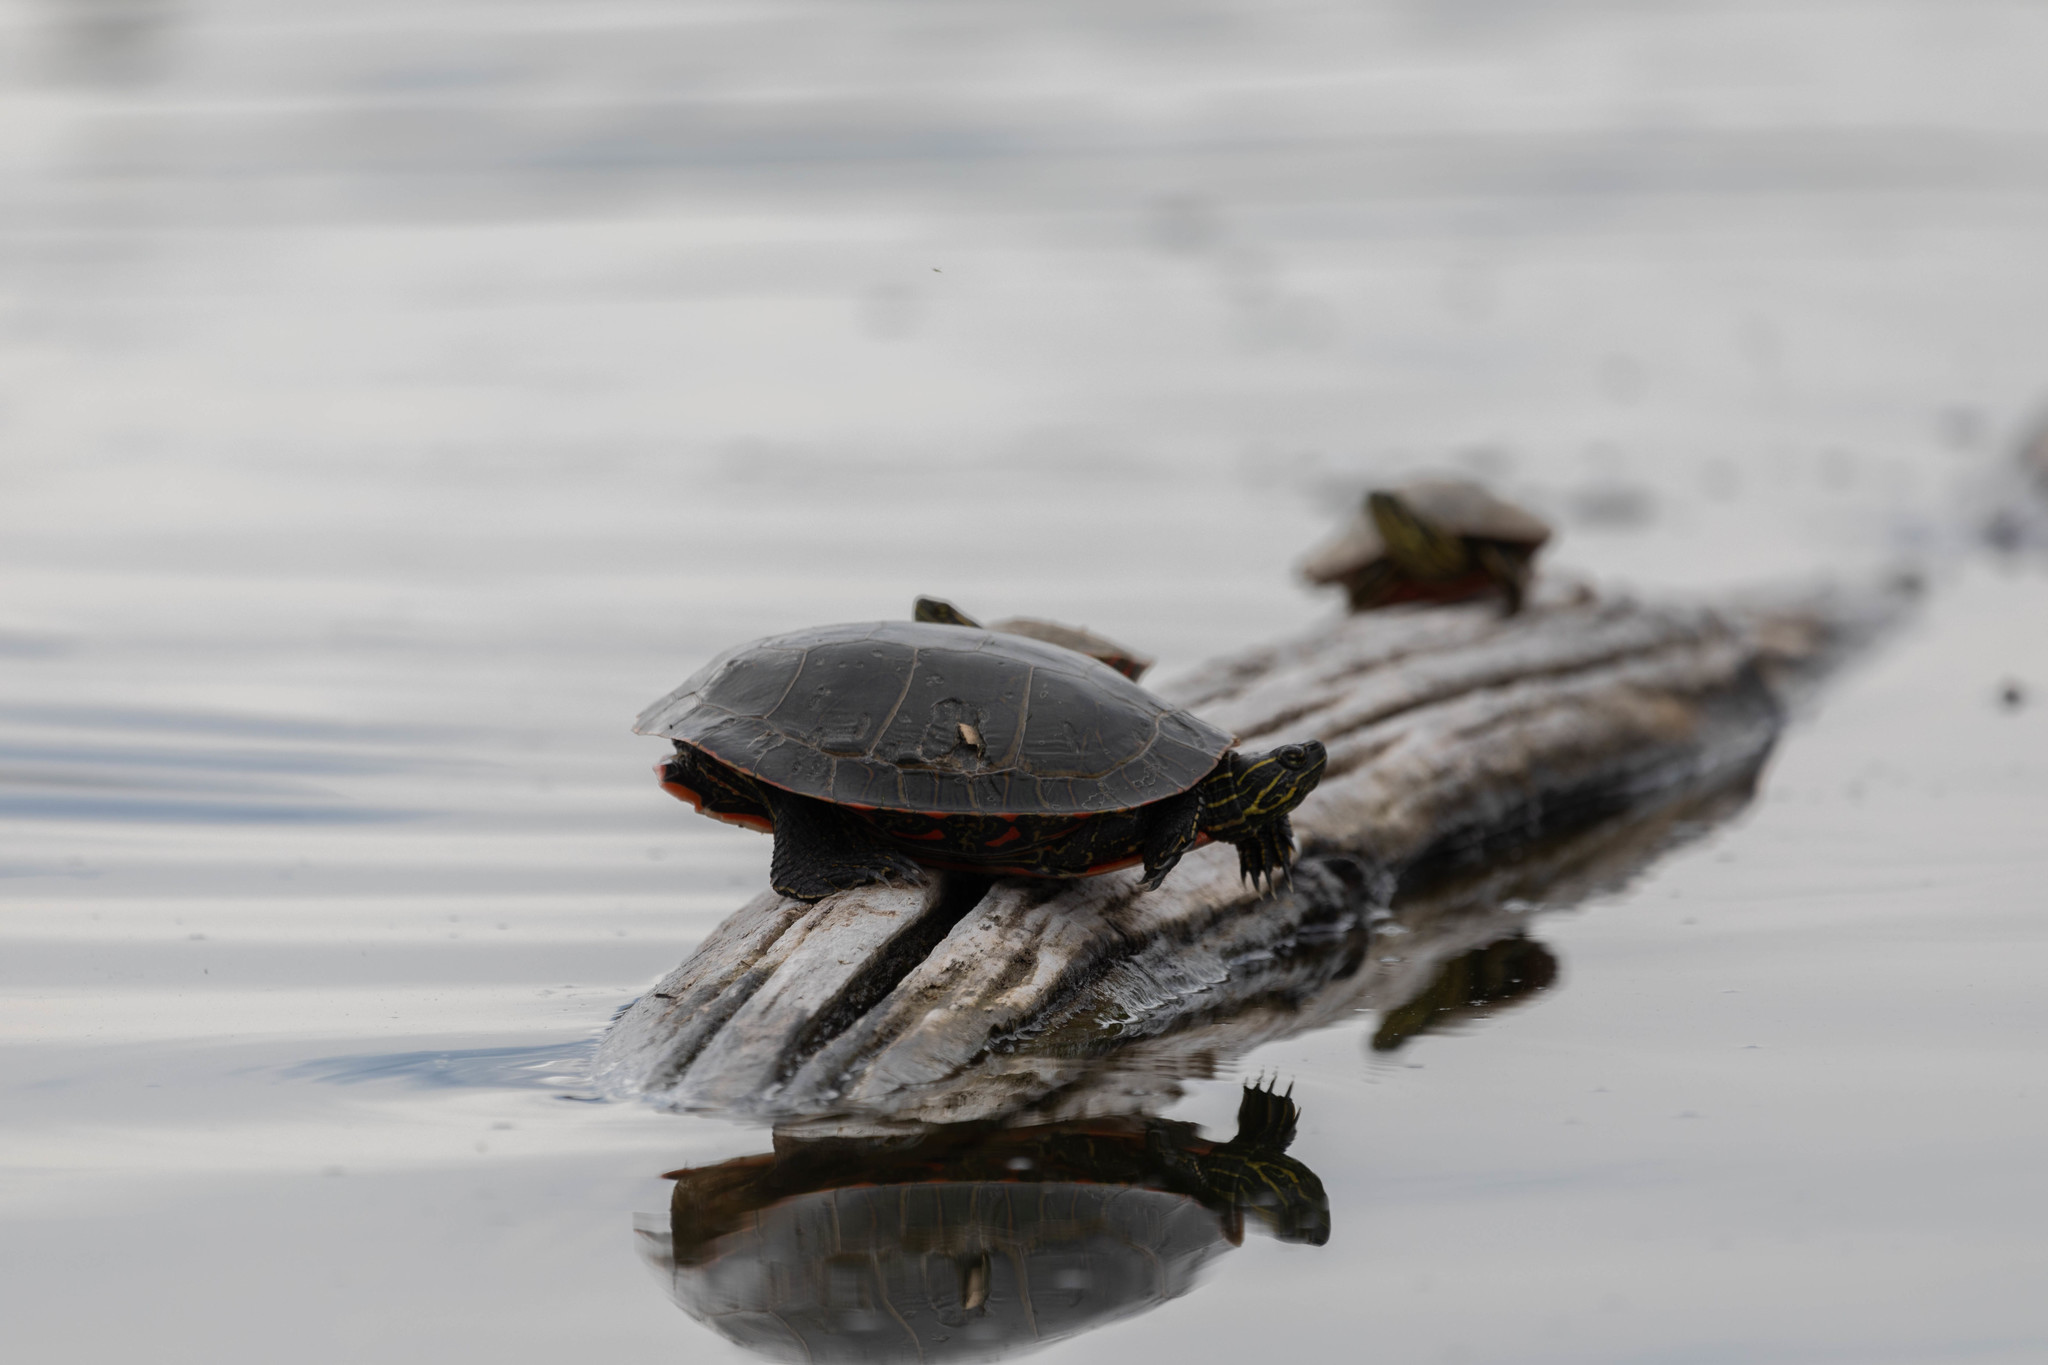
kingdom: Animalia
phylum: Chordata
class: Testudines
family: Emydidae
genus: Chrysemys
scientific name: Chrysemys picta
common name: Painted turtle
